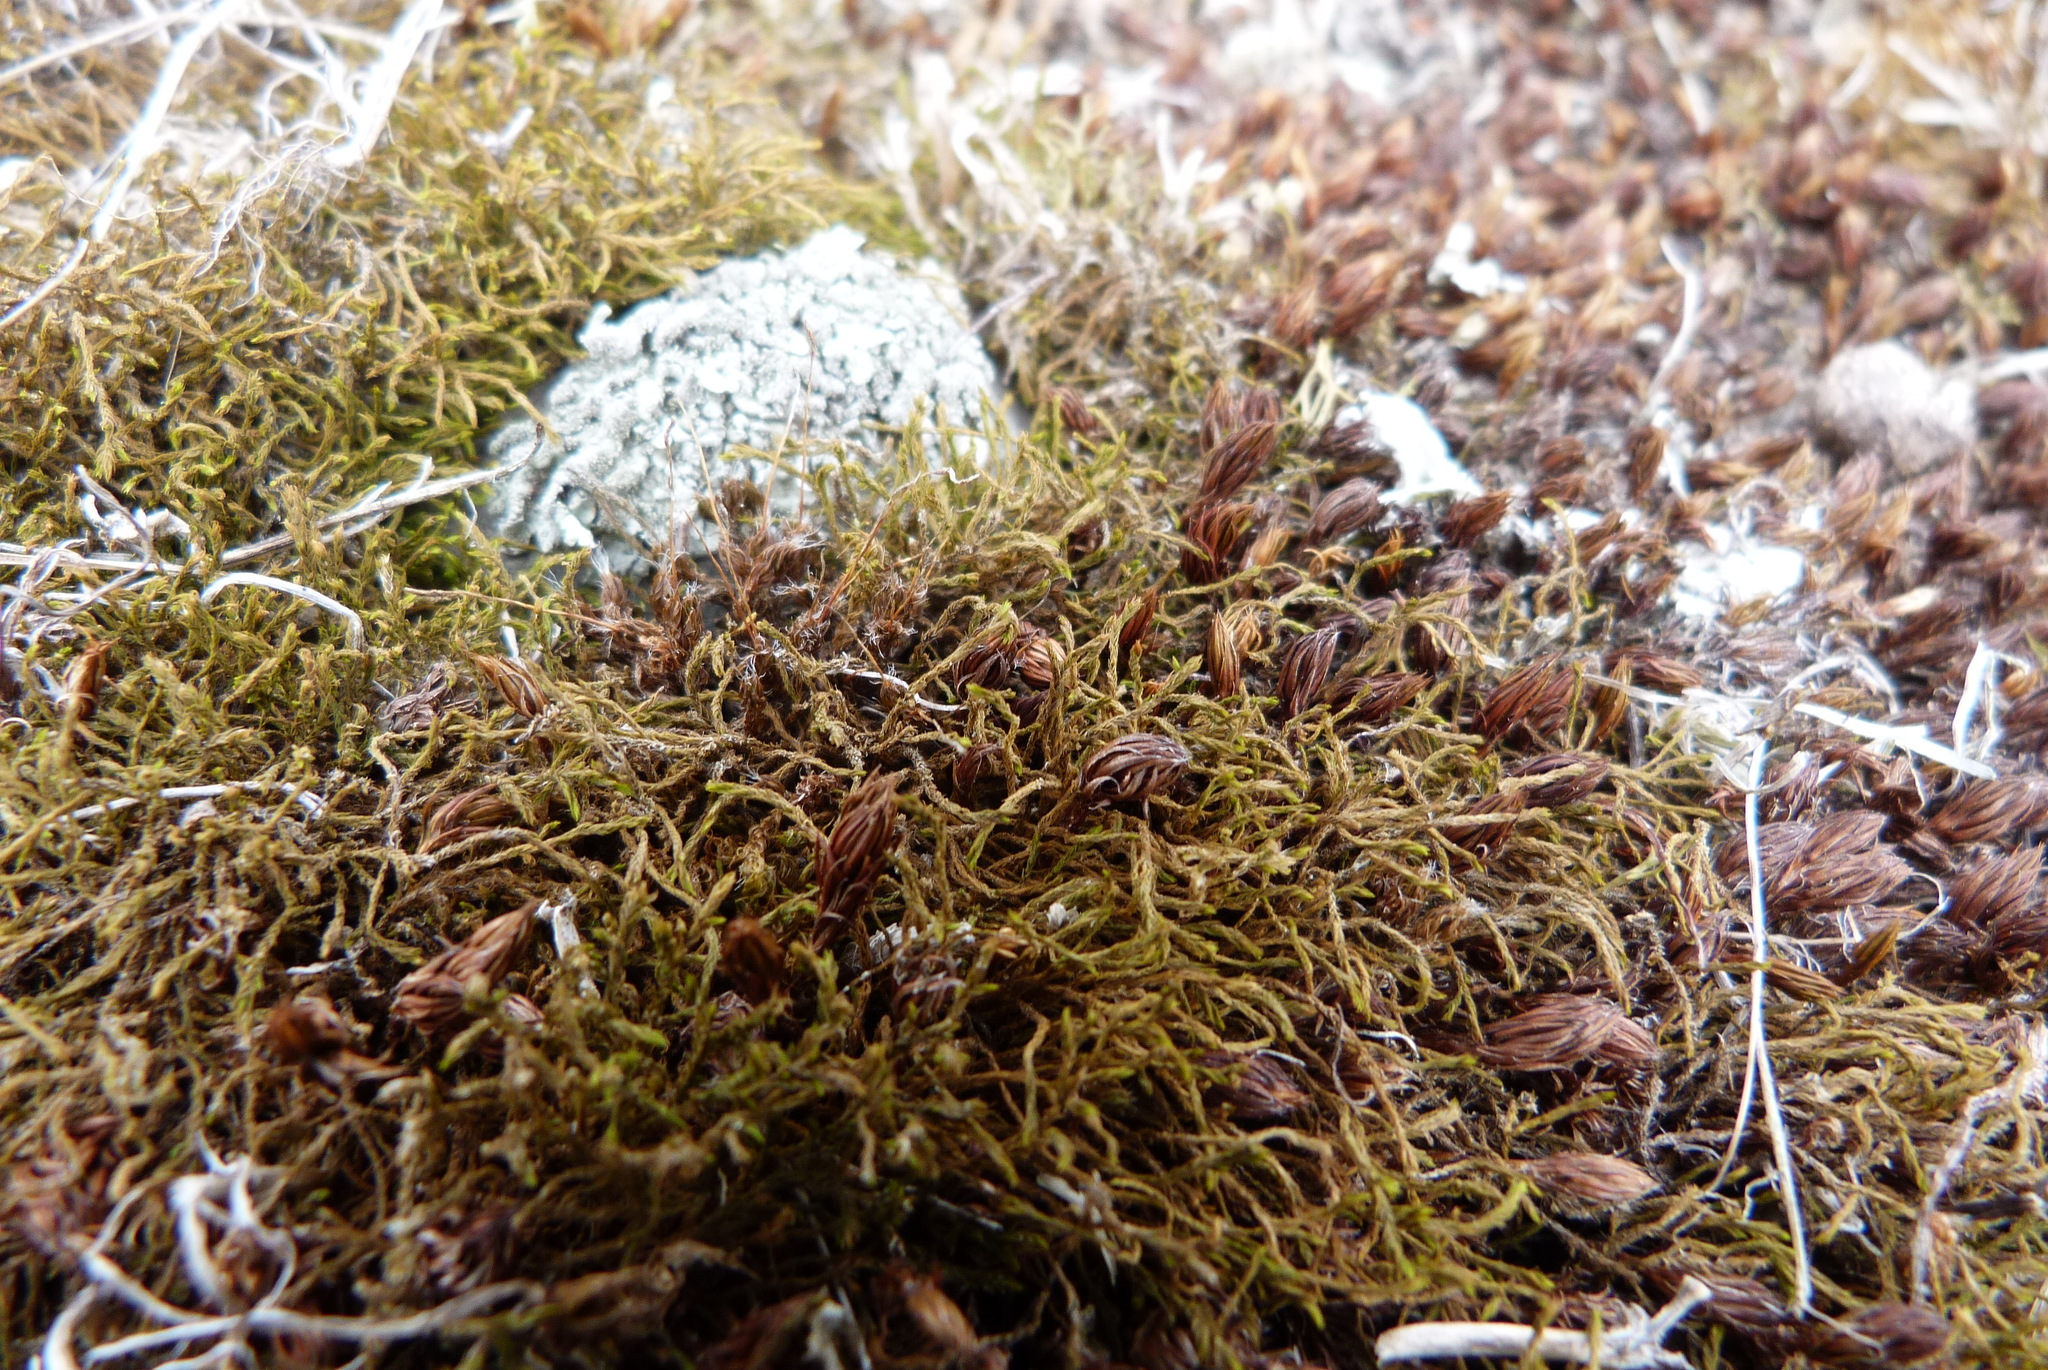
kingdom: Plantae
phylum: Bryophyta
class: Bryopsida
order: Pottiales
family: Pottiaceae
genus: Triquetrella
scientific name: Triquetrella papillata
